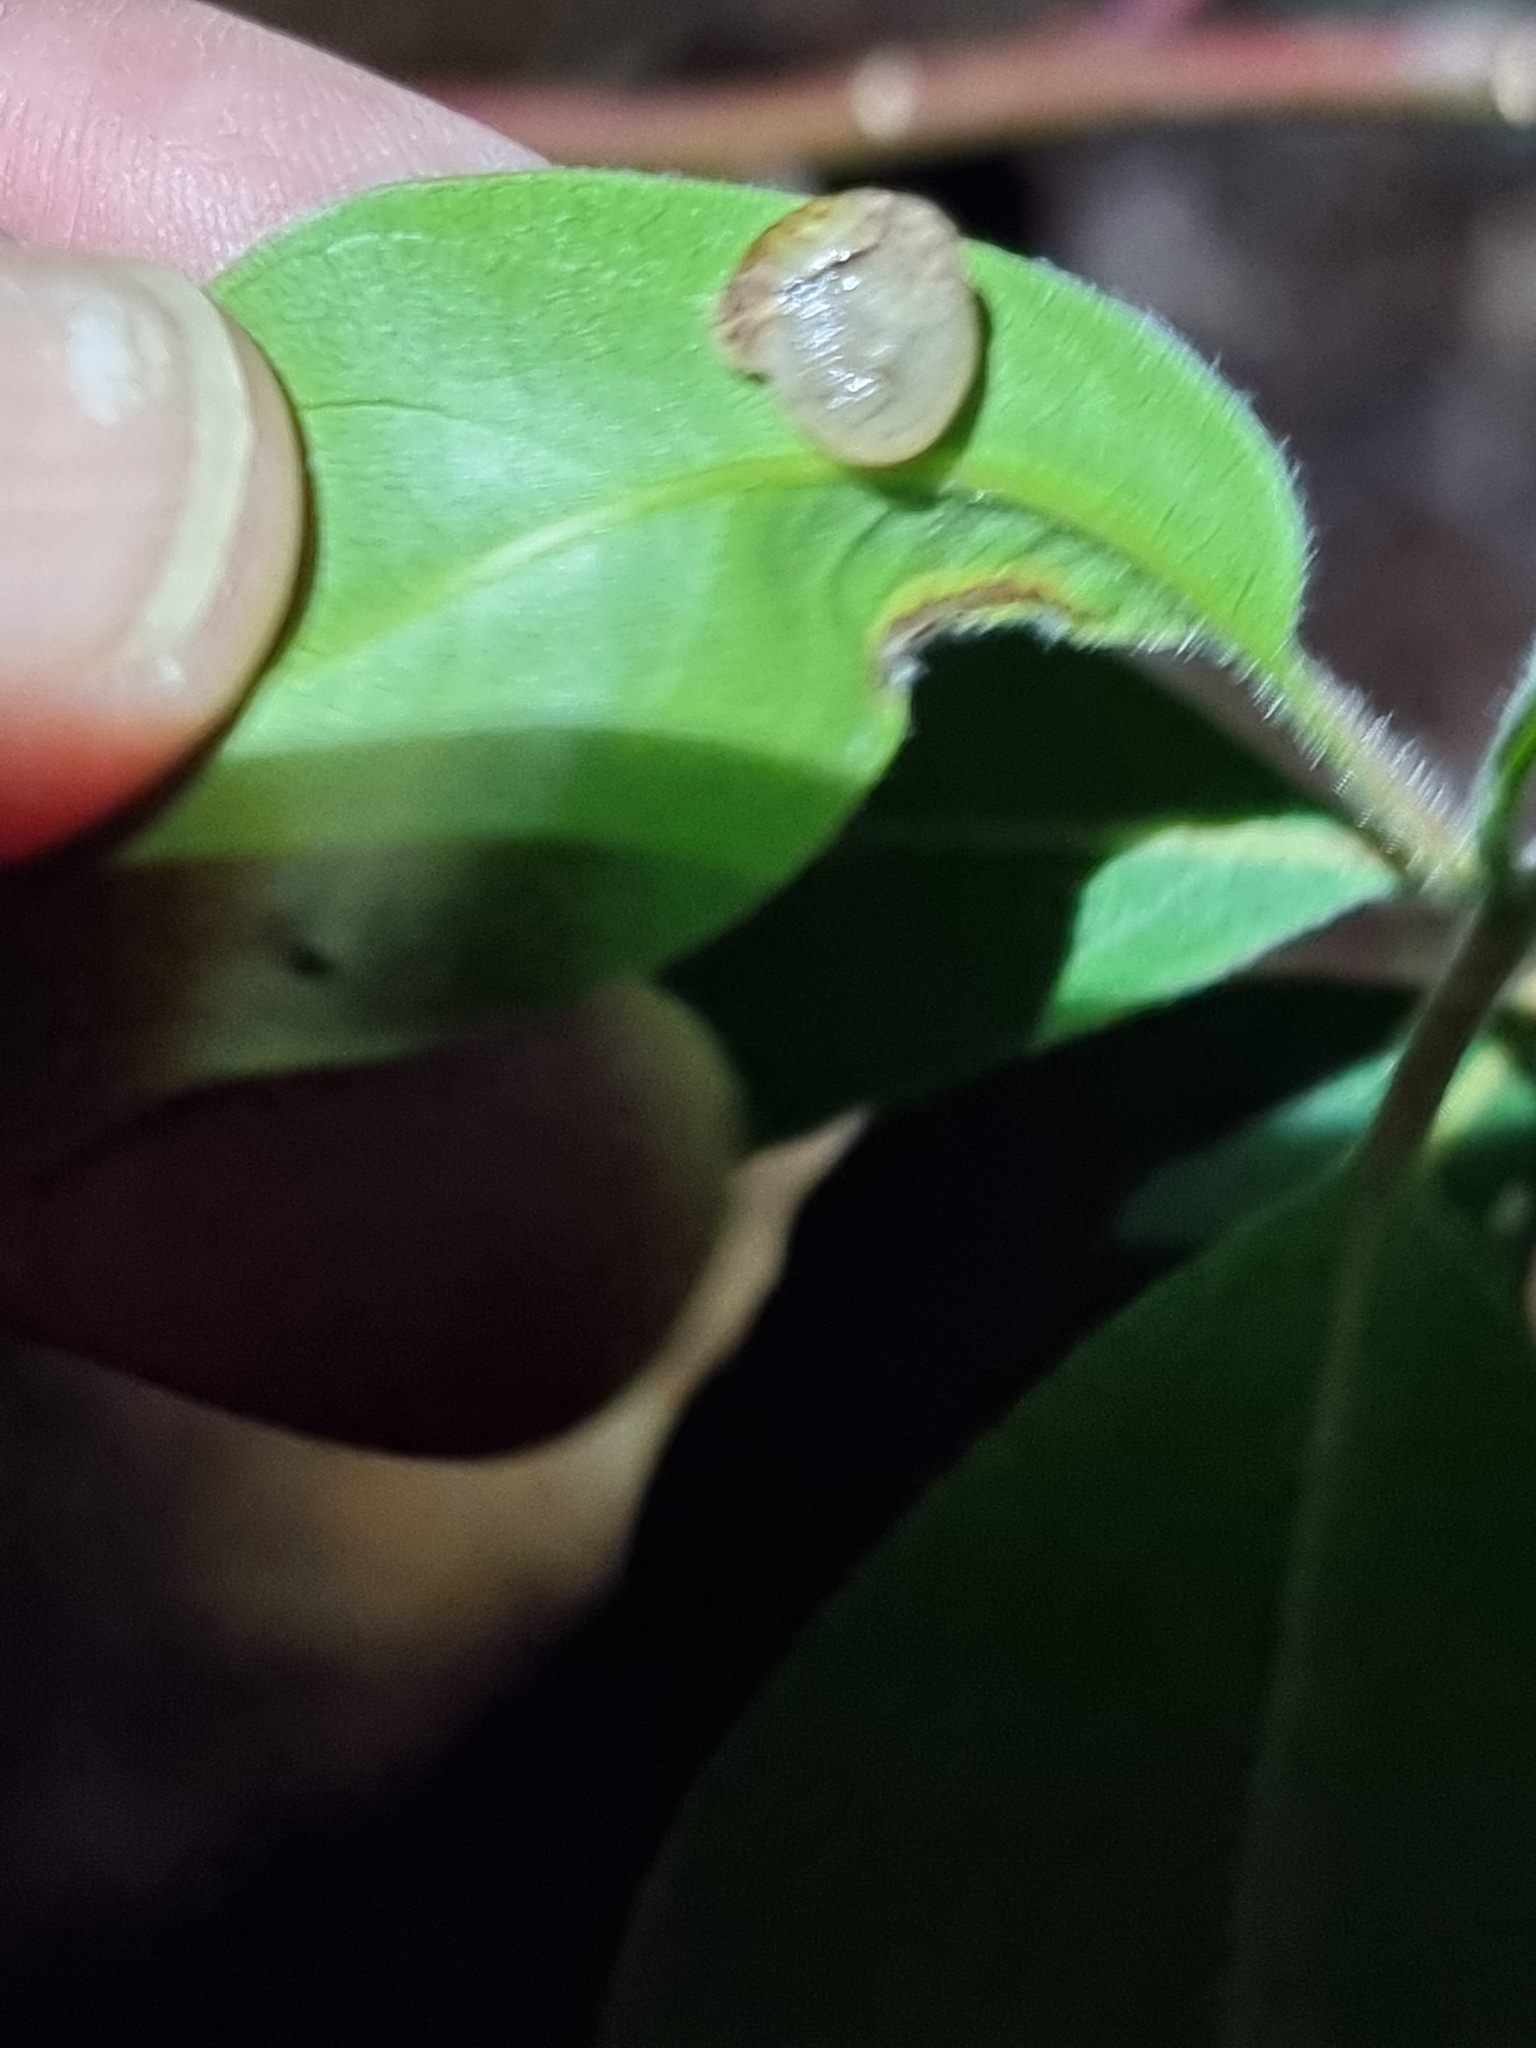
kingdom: Animalia
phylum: Mollusca
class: Gastropoda
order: Stylommatophora
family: Helicarionidae
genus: Ubiquitarion
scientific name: Ubiquitarion iridis
